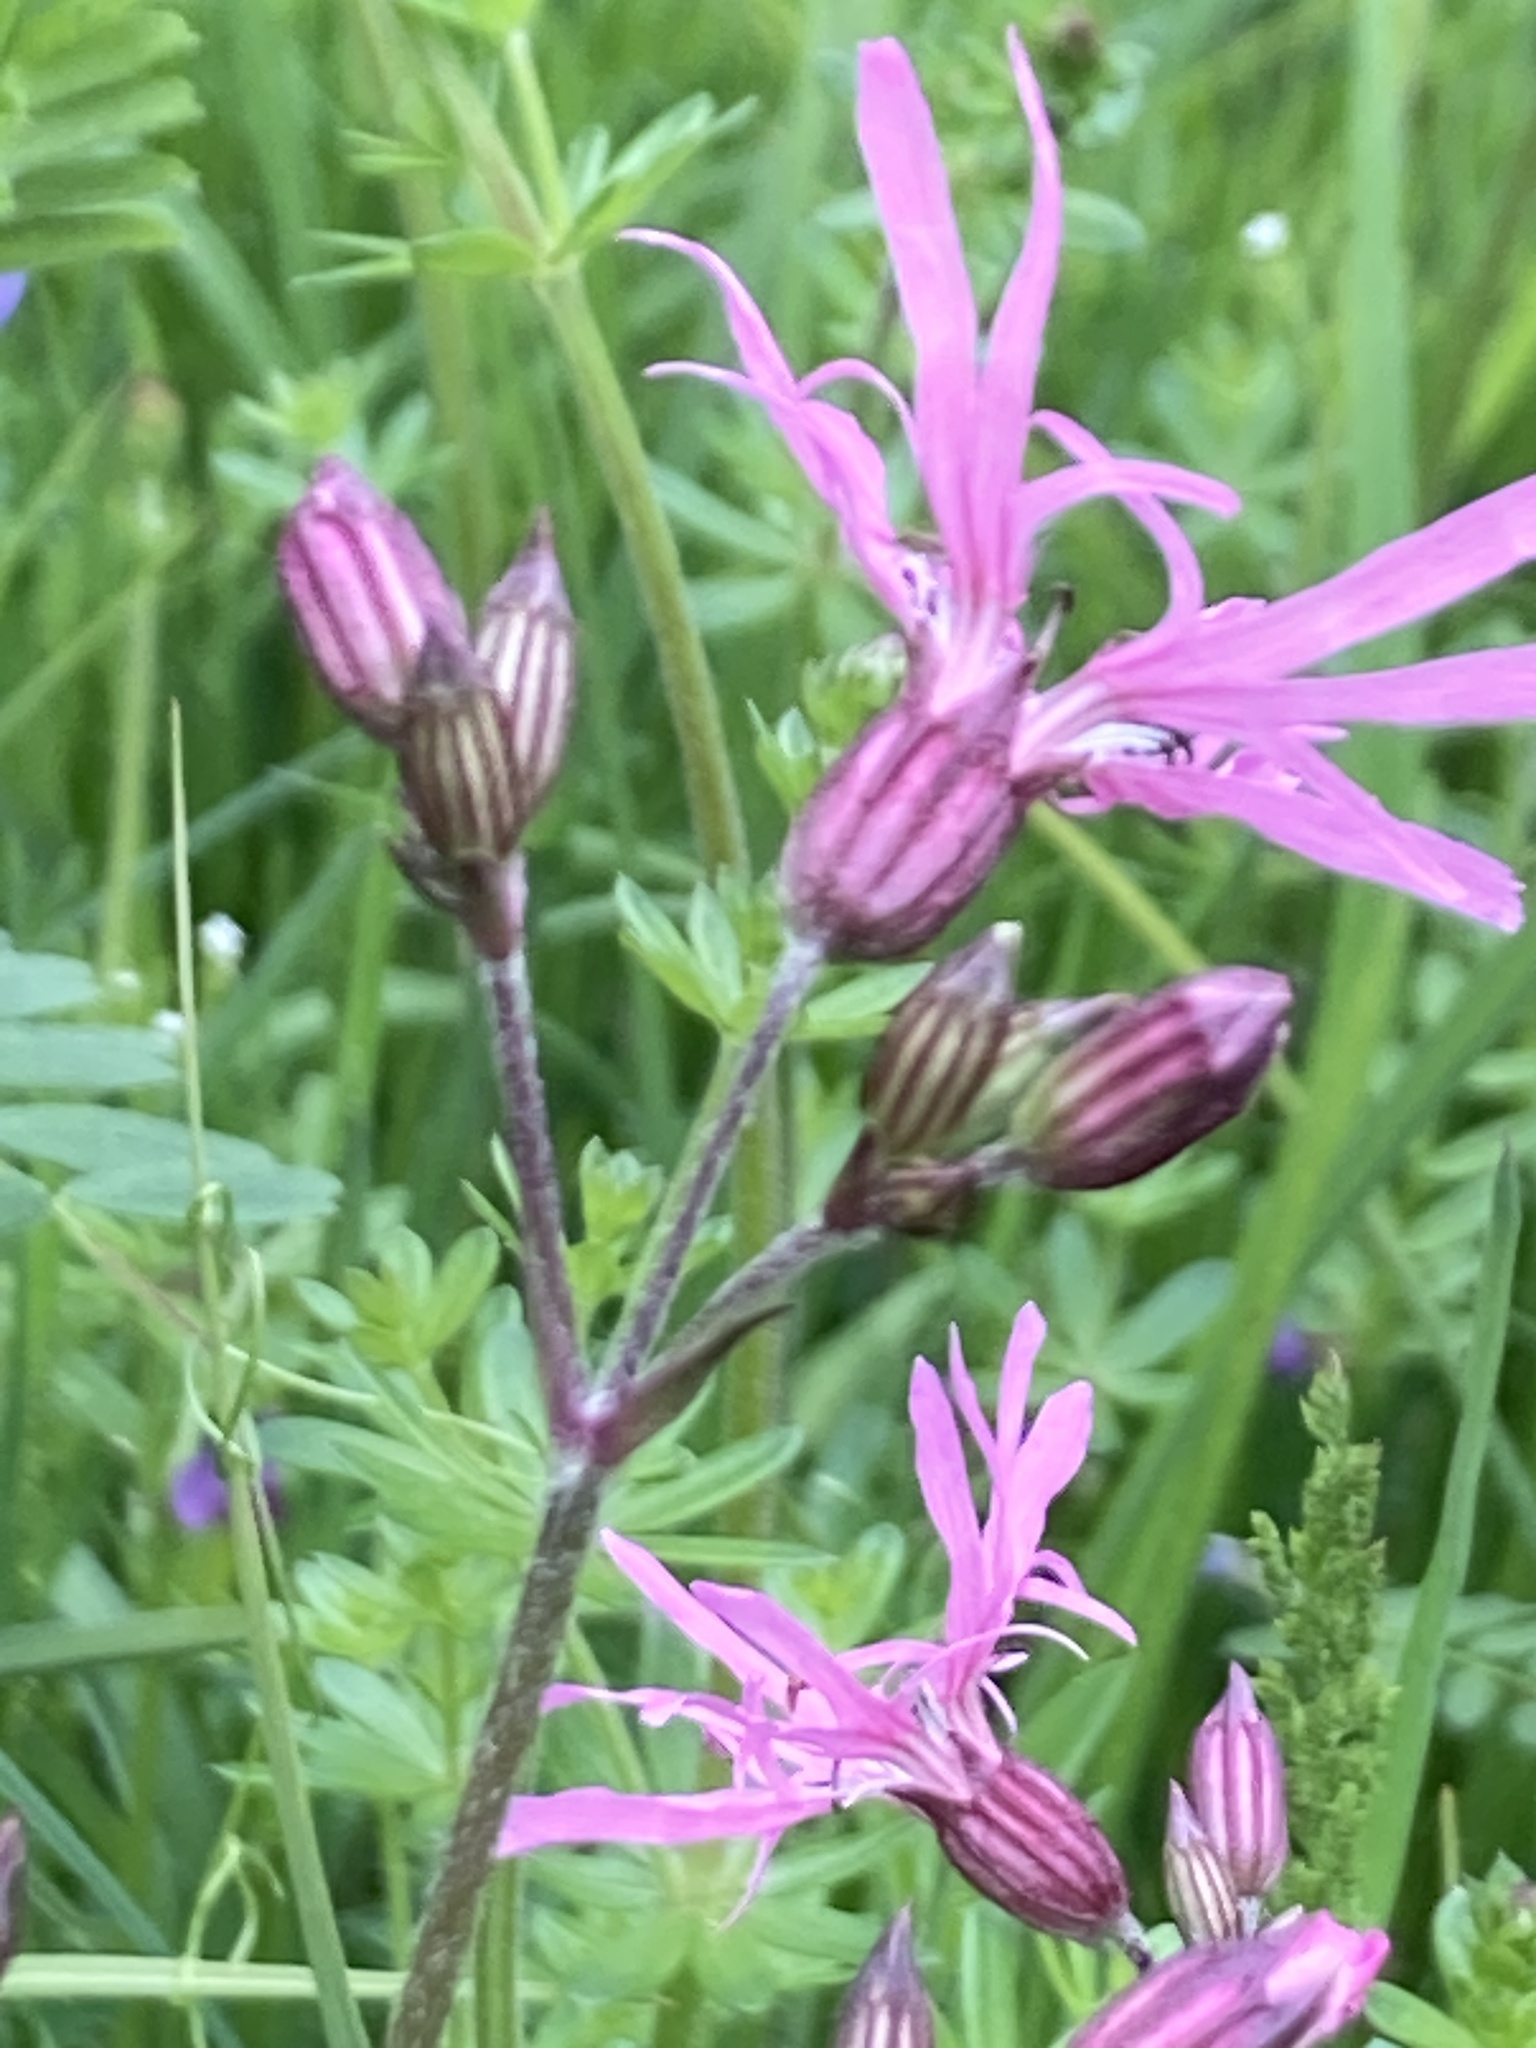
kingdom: Plantae
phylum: Tracheophyta
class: Magnoliopsida
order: Caryophyllales
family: Caryophyllaceae
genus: Silene
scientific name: Silene flos-cuculi
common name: Ragged-robin
